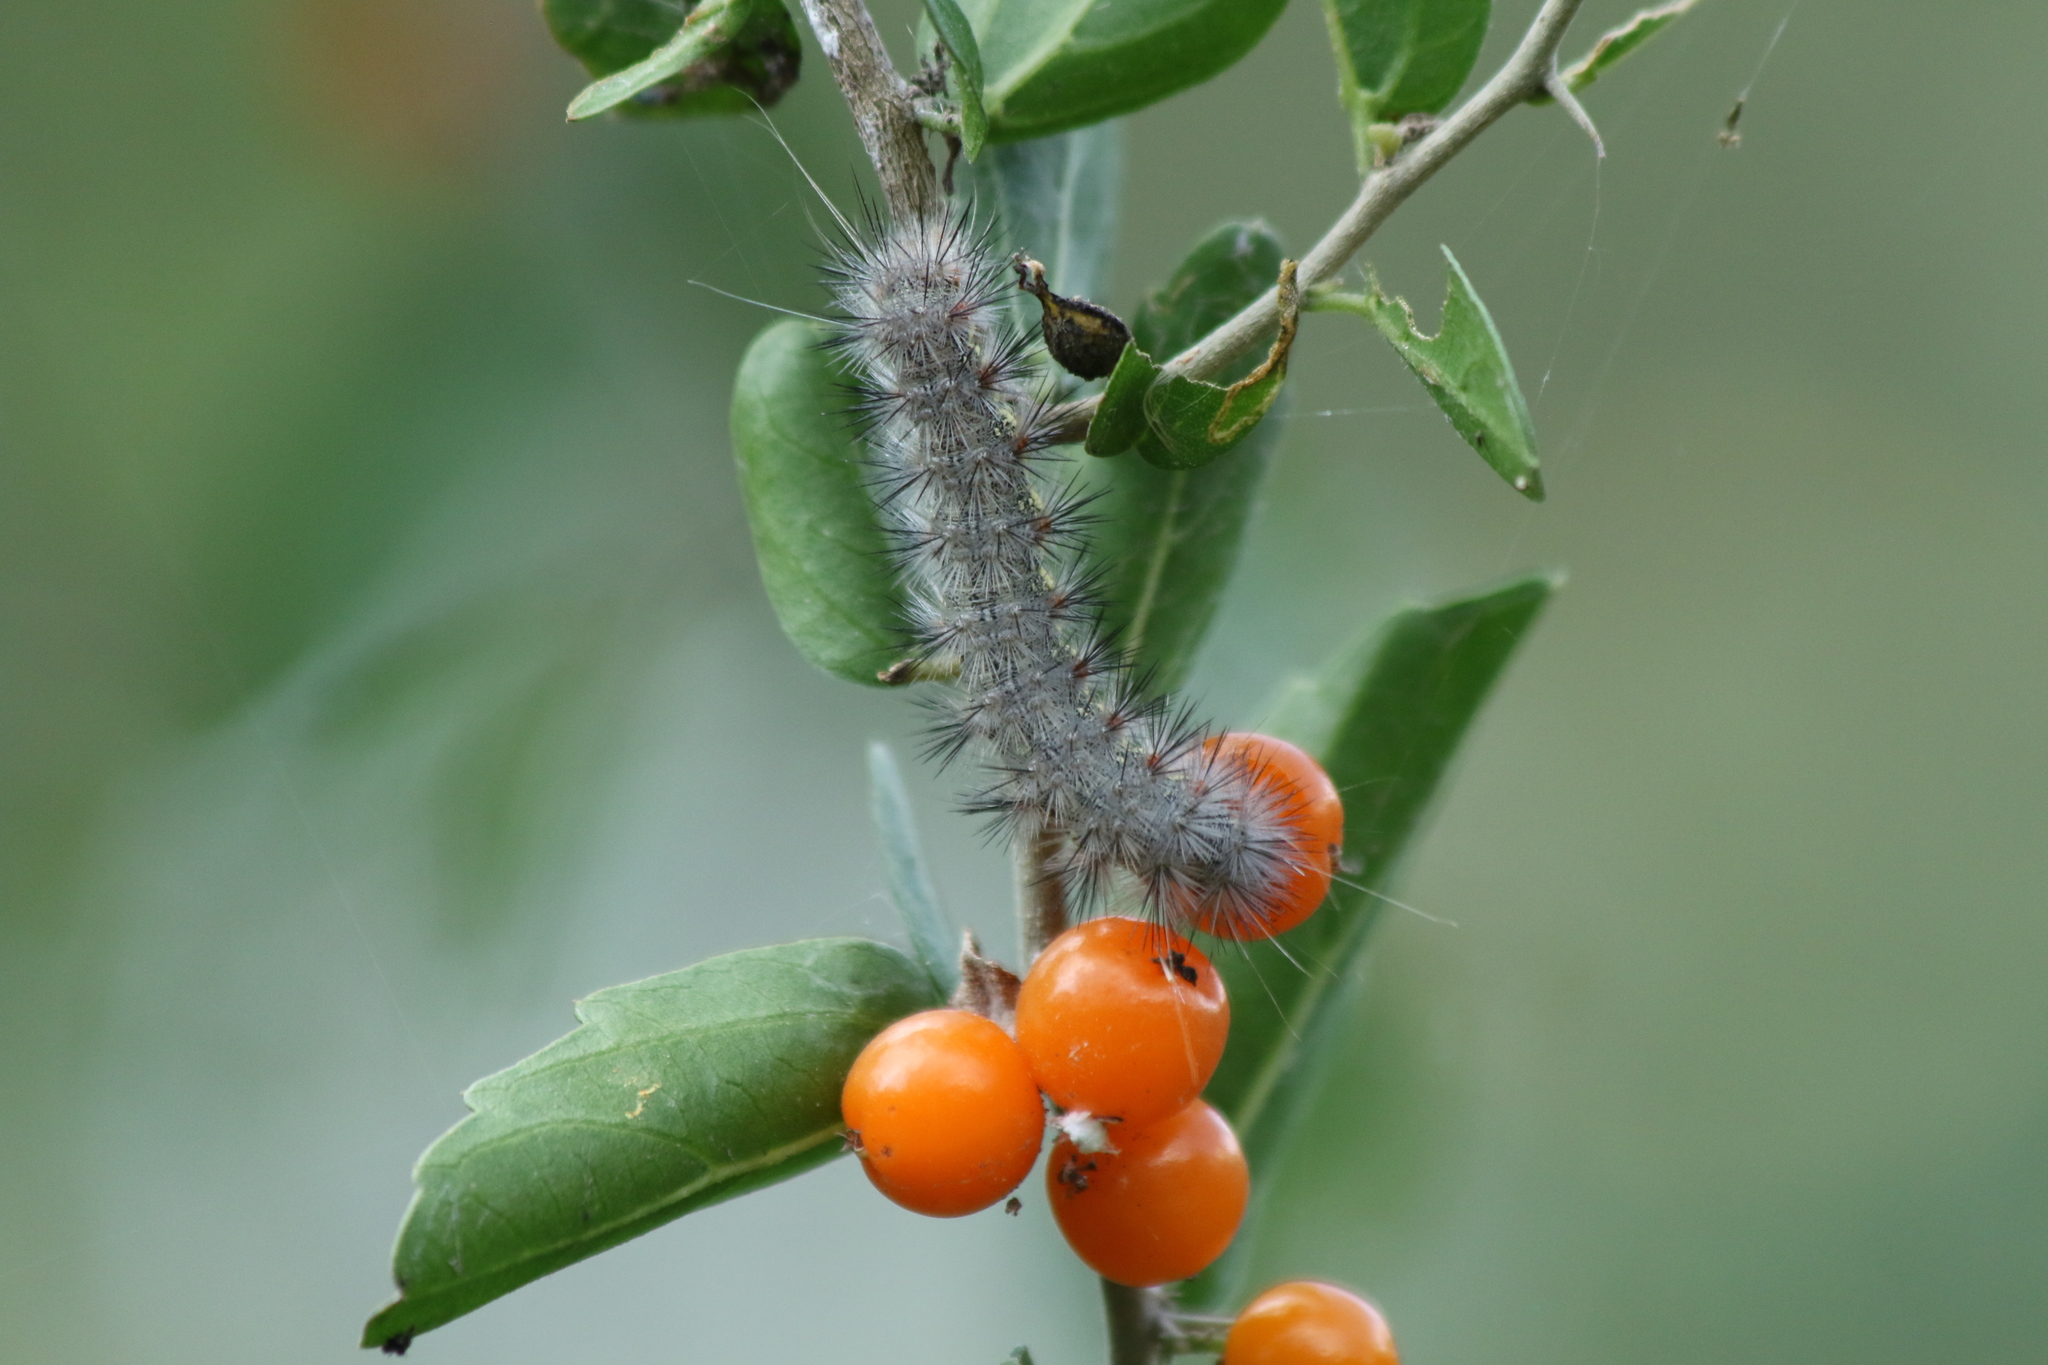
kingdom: Animalia
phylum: Arthropoda
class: Insecta
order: Lepidoptera
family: Erebidae
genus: Hypercompe
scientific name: Hypercompe oslari
